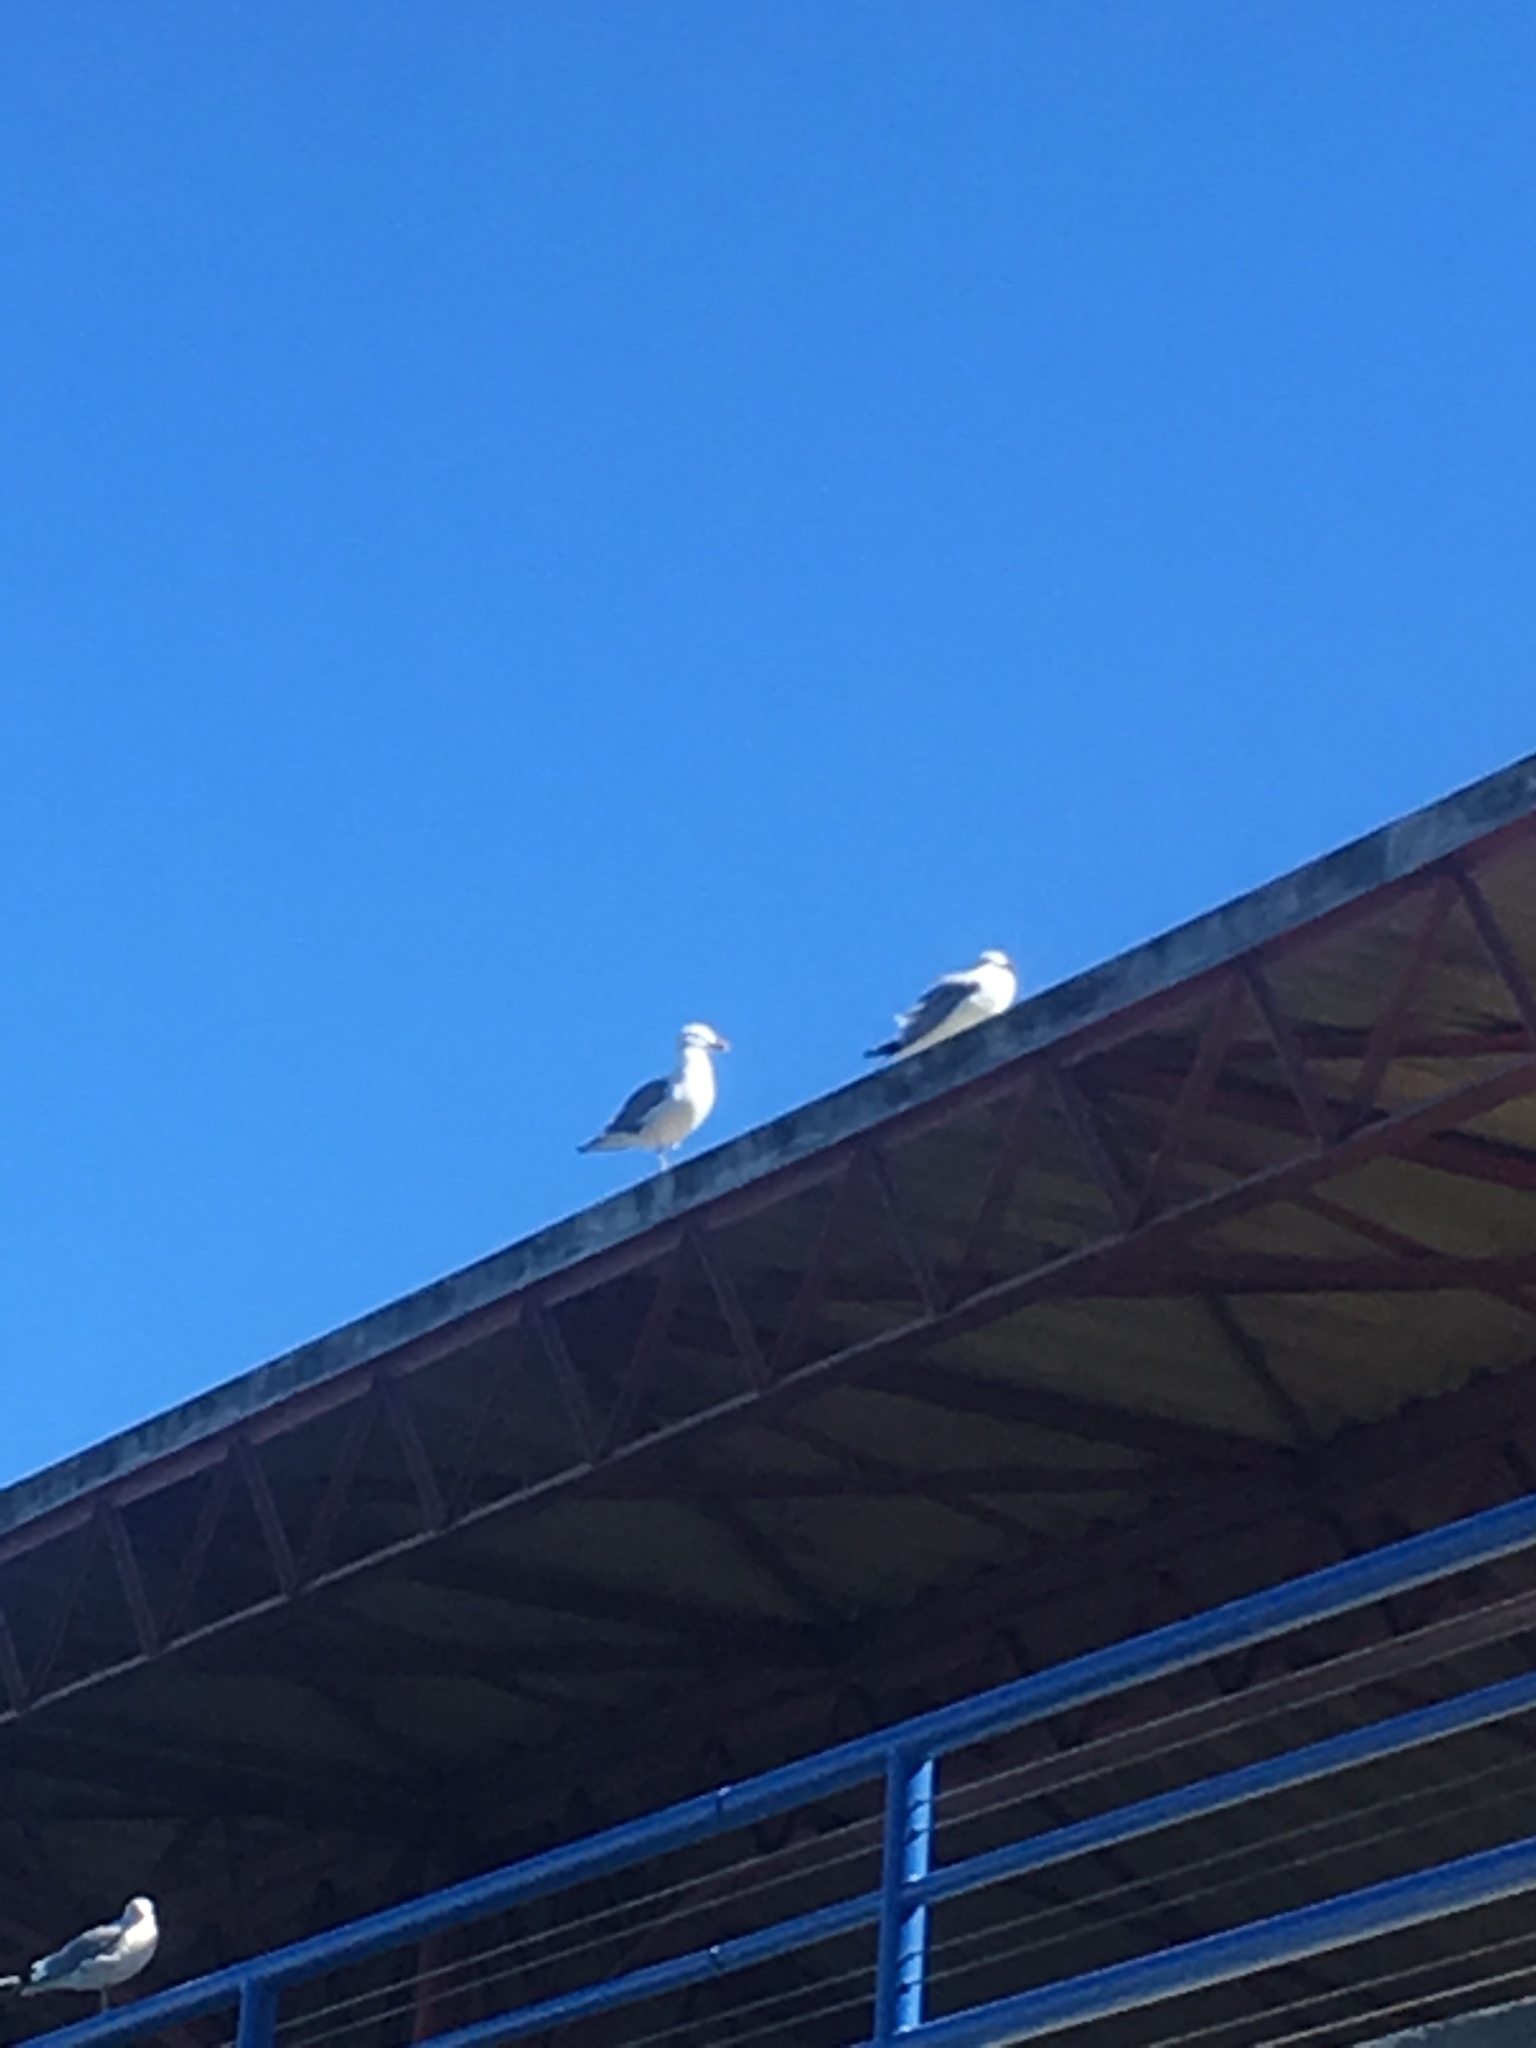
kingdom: Animalia
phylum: Chordata
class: Aves
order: Charadriiformes
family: Laridae
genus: Larus
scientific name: Larus occidentalis
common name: Western gull
